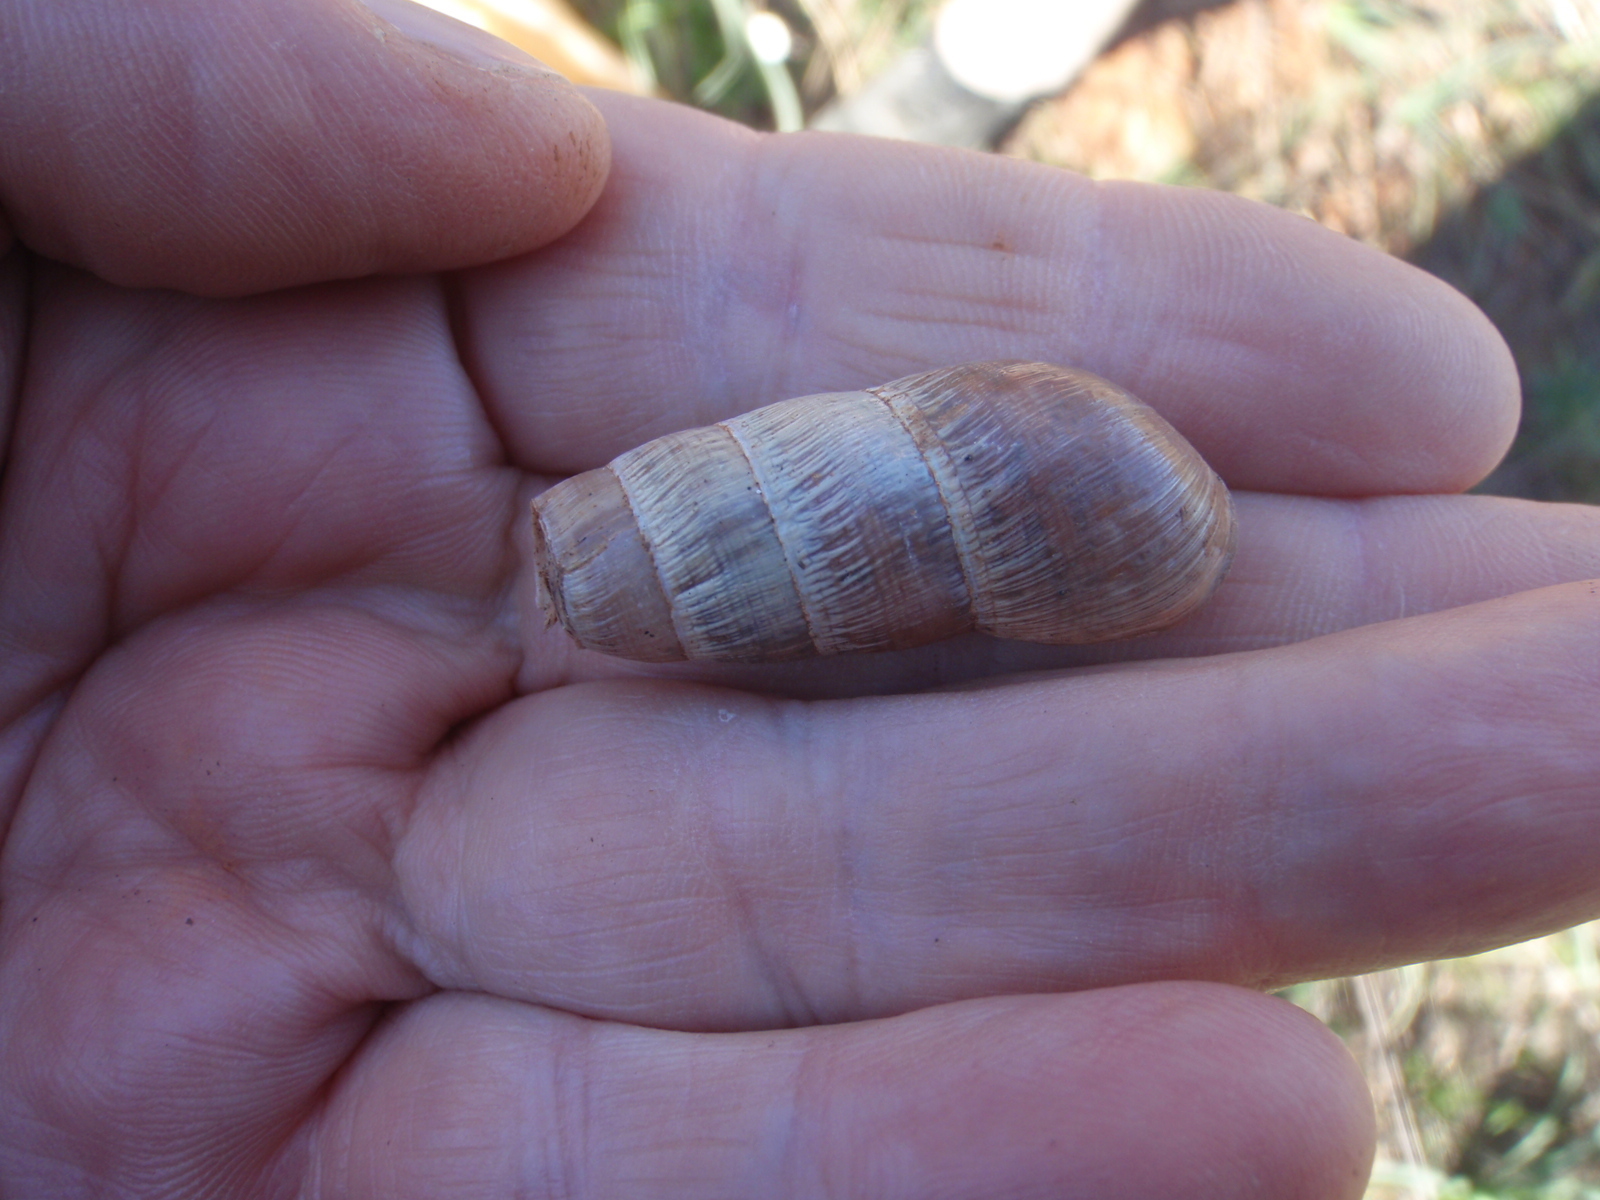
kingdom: Animalia
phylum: Mollusca
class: Gastropoda
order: Stylommatophora
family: Achatinidae
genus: Rumina
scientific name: Rumina decollata
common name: Decollate snail
